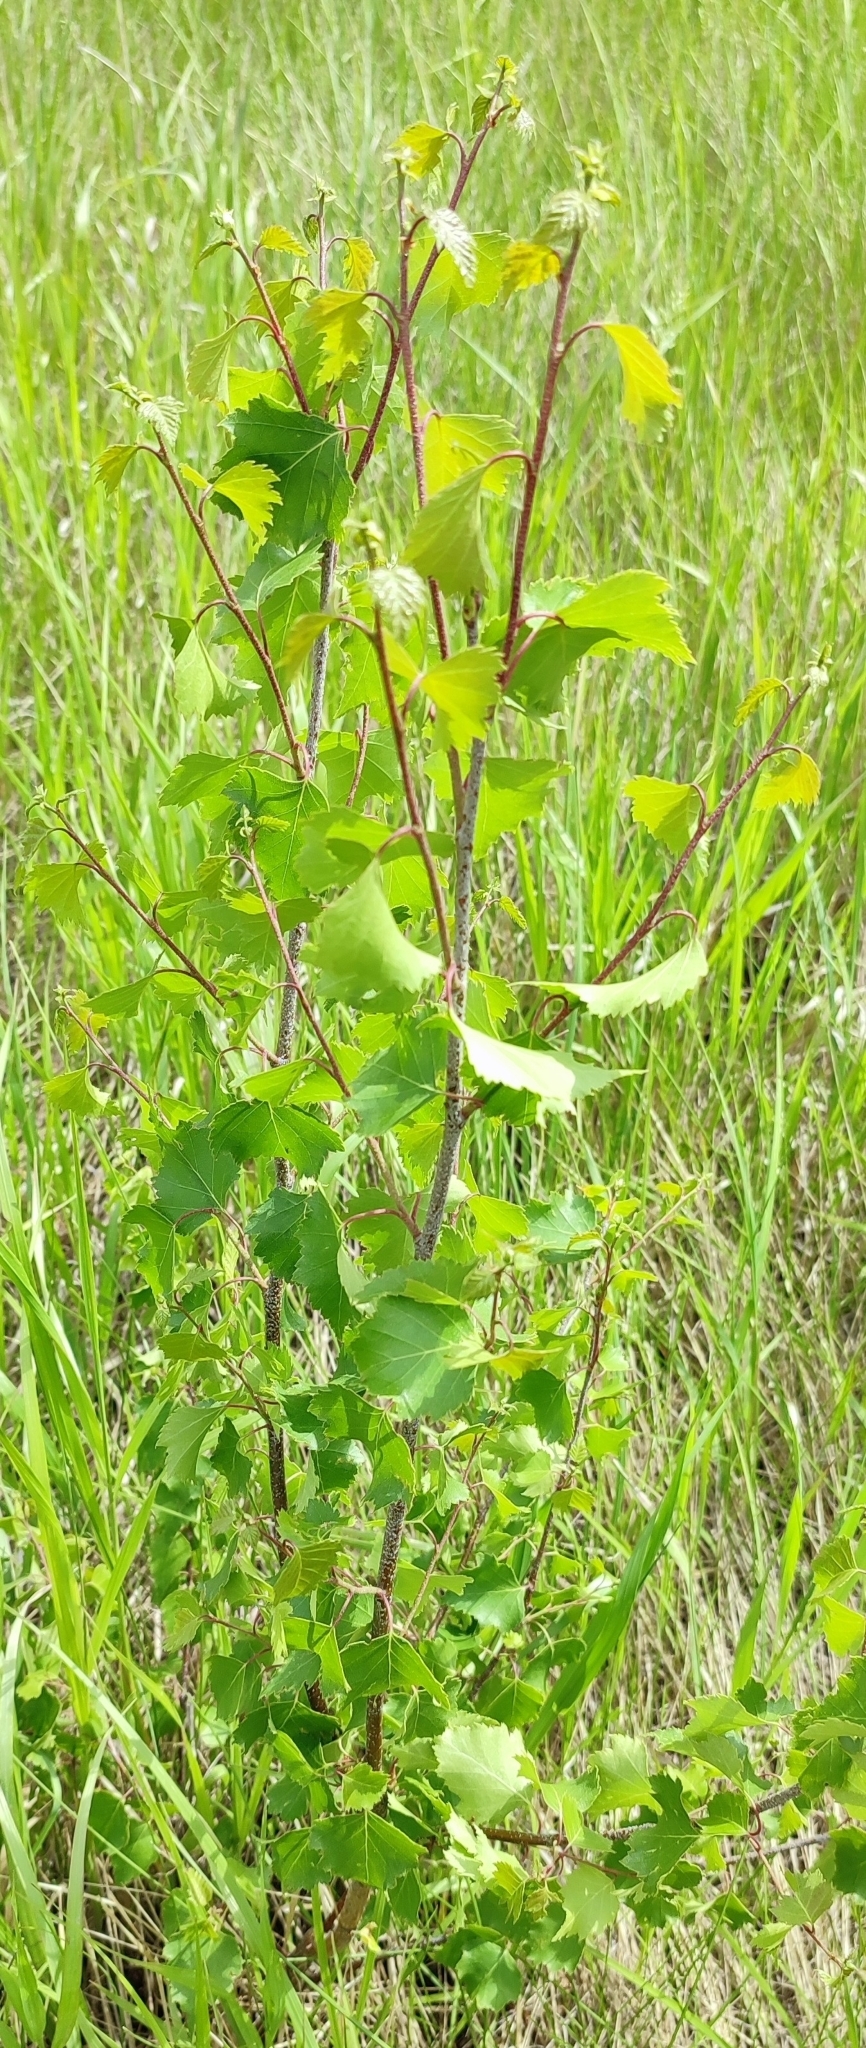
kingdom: Plantae
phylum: Tracheophyta
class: Magnoliopsida
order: Fagales
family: Betulaceae
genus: Betula
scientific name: Betula pendula
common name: Silver birch
